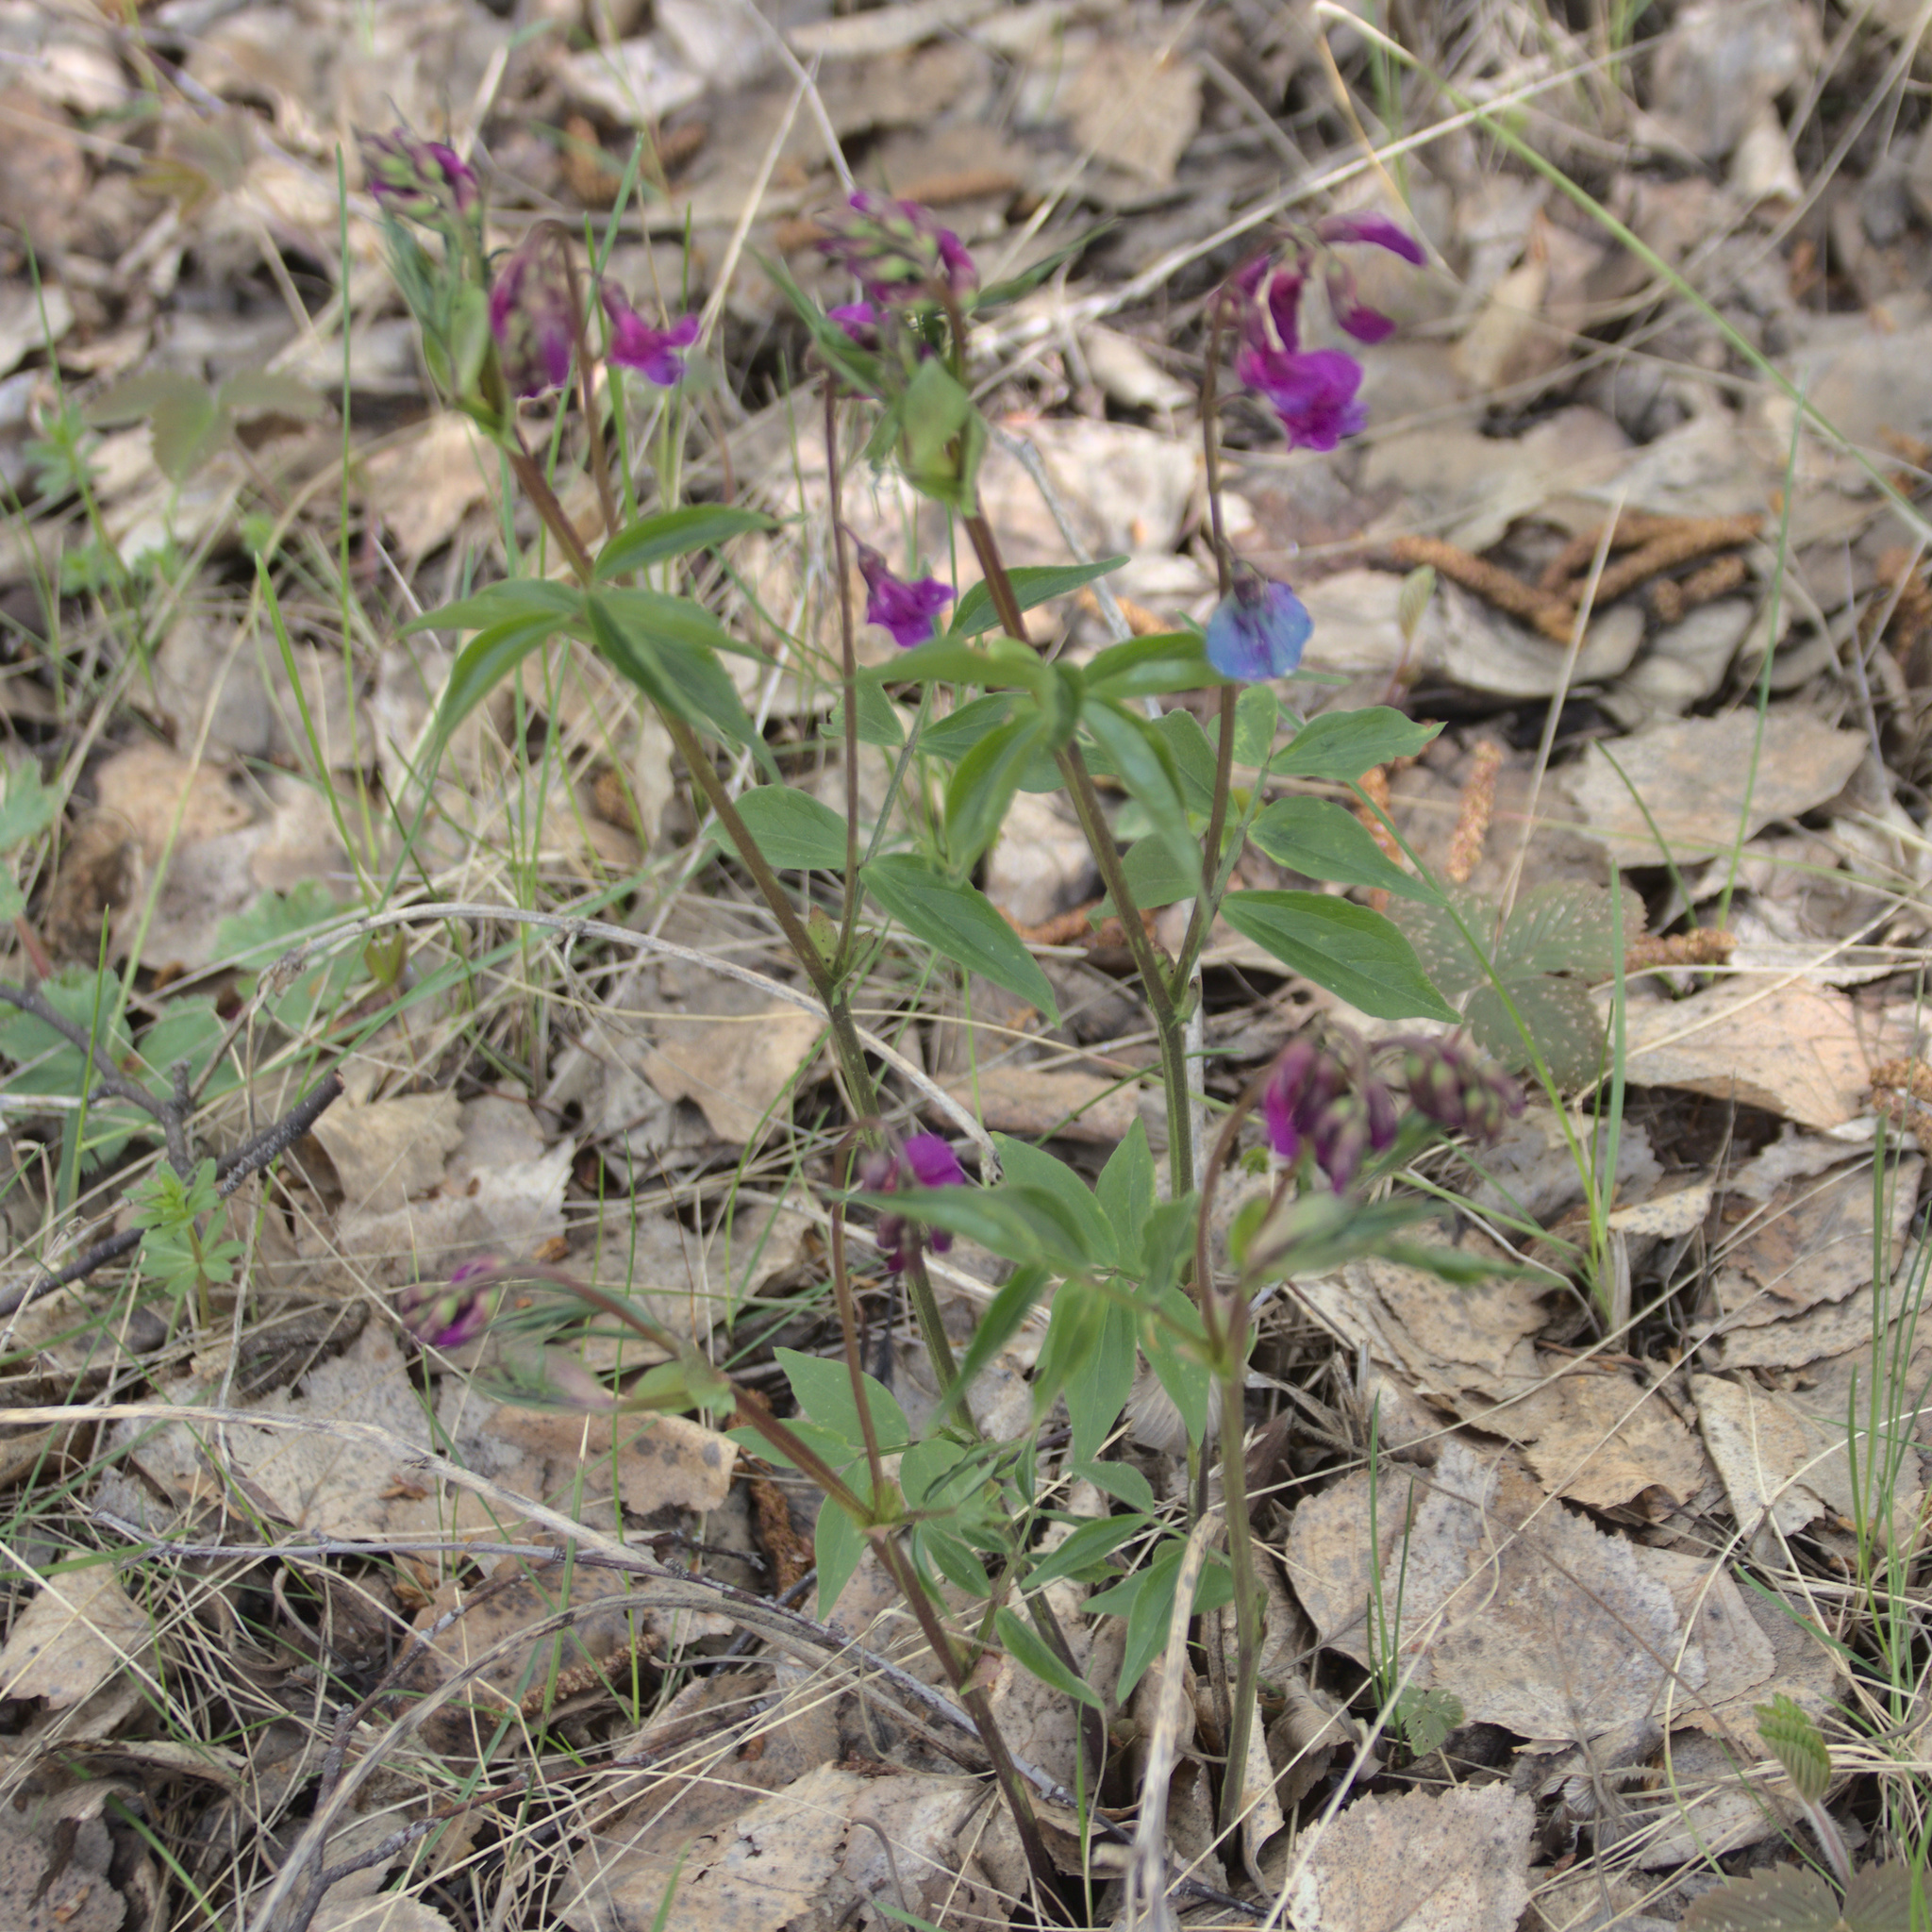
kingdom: Plantae
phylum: Tracheophyta
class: Magnoliopsida
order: Fabales
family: Fabaceae
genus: Lathyrus
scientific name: Lathyrus vernus
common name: Spring pea
